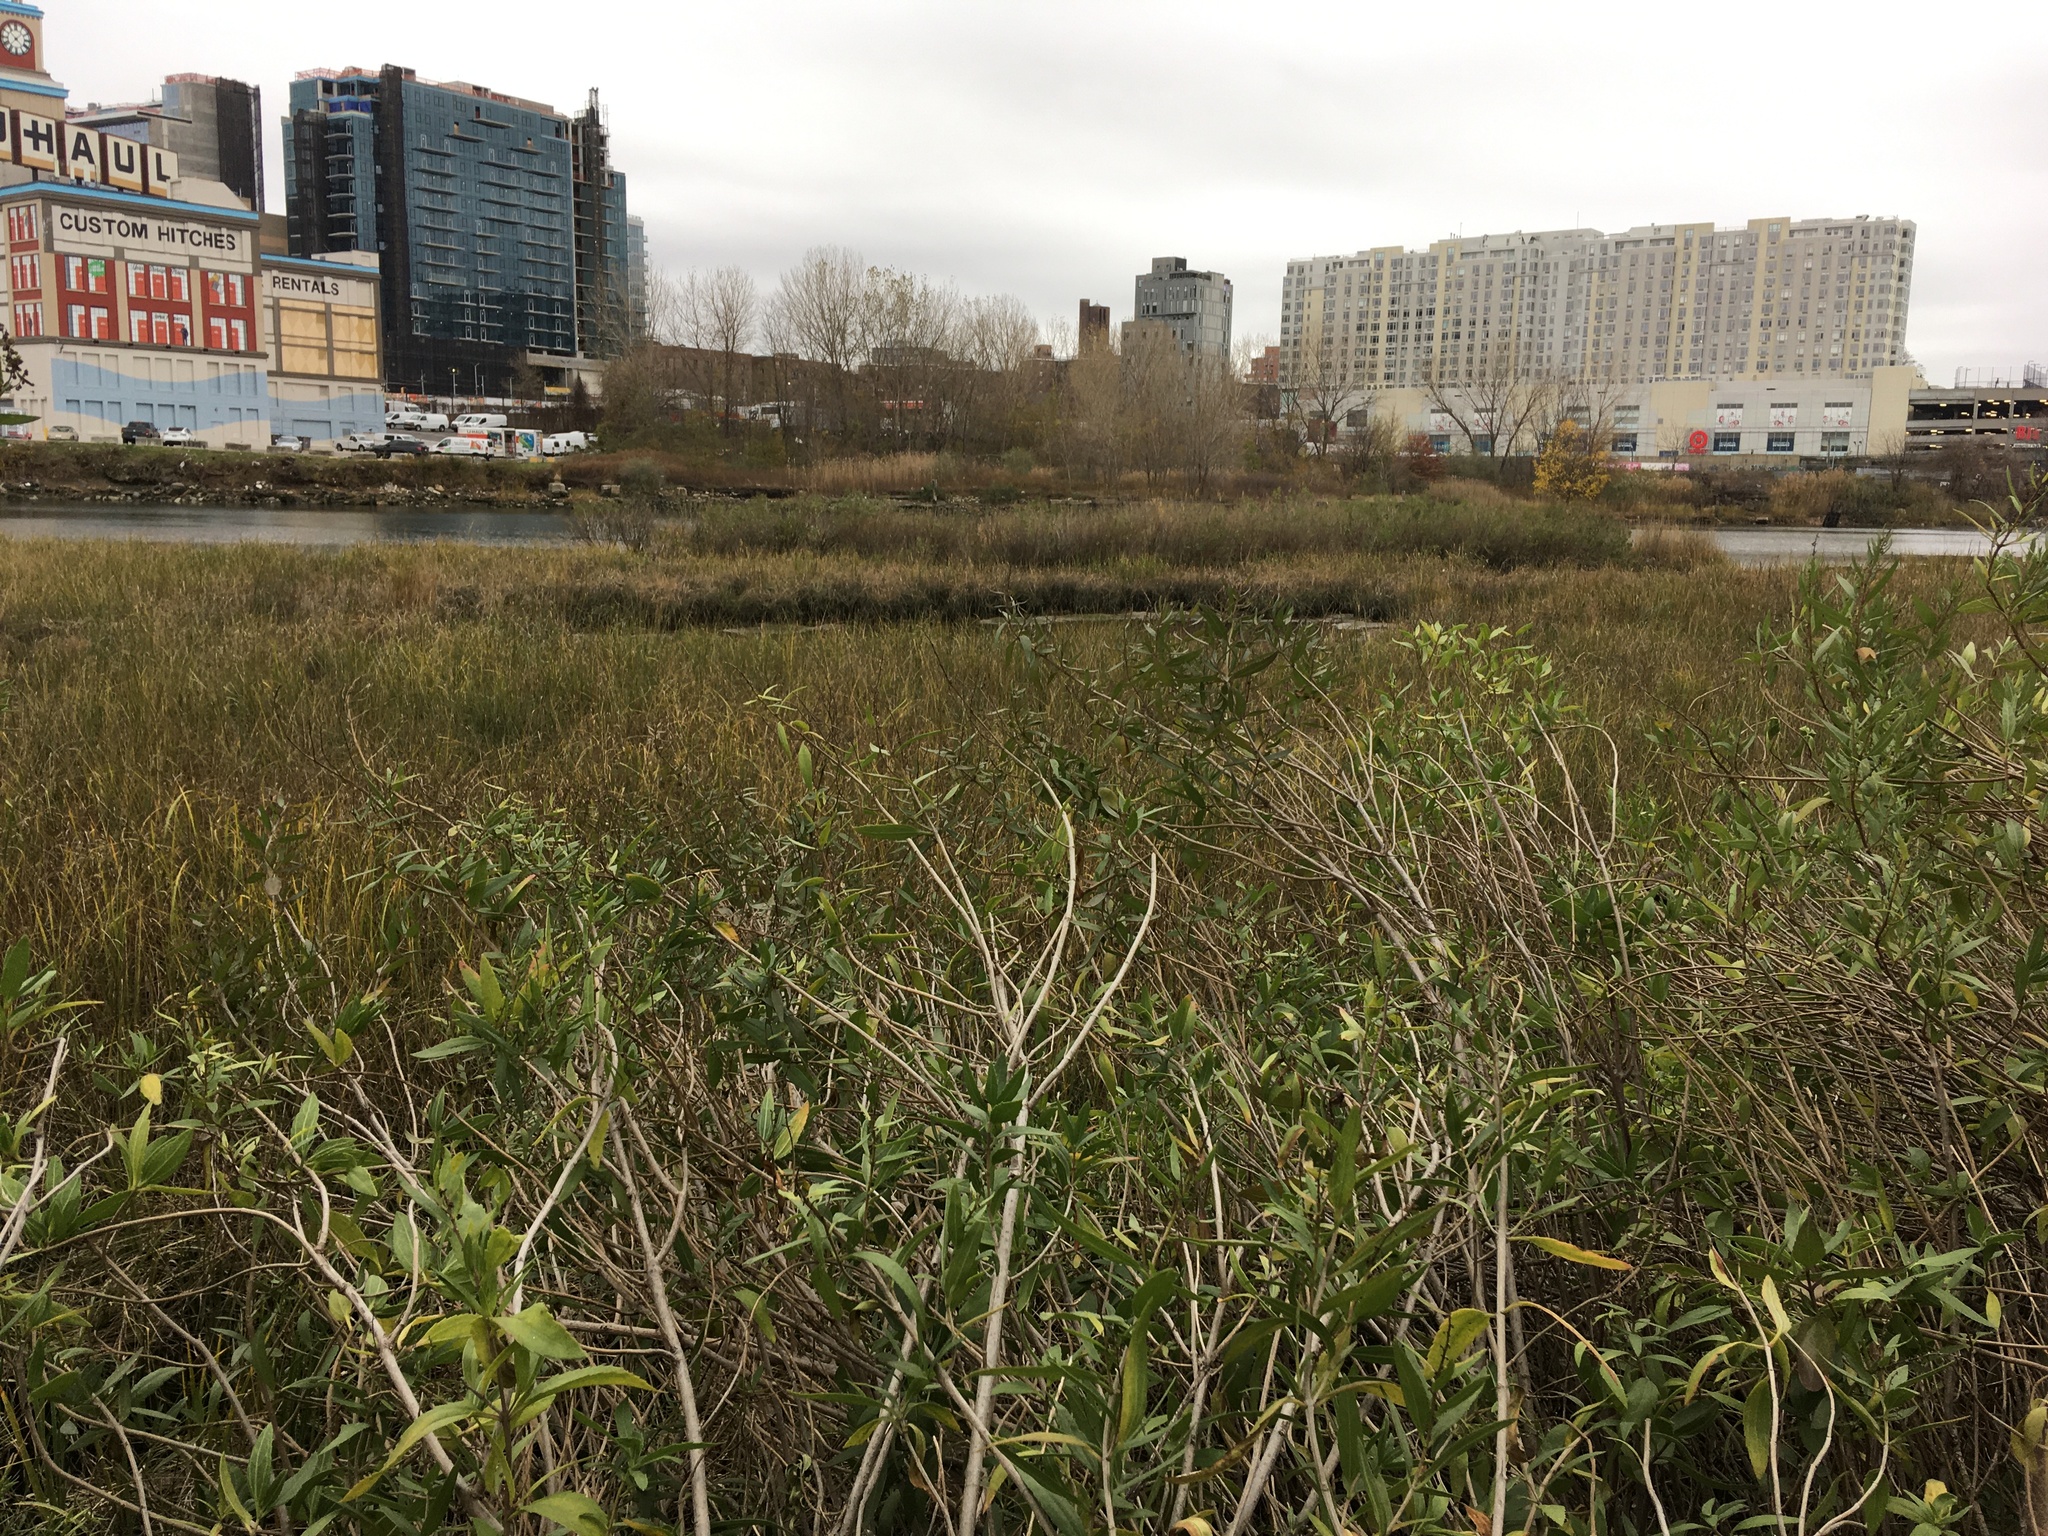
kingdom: Plantae
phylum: Tracheophyta
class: Magnoliopsida
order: Asterales
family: Asteraceae
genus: Iva
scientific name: Iva frutescens
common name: Big-leaved marsh-elder
